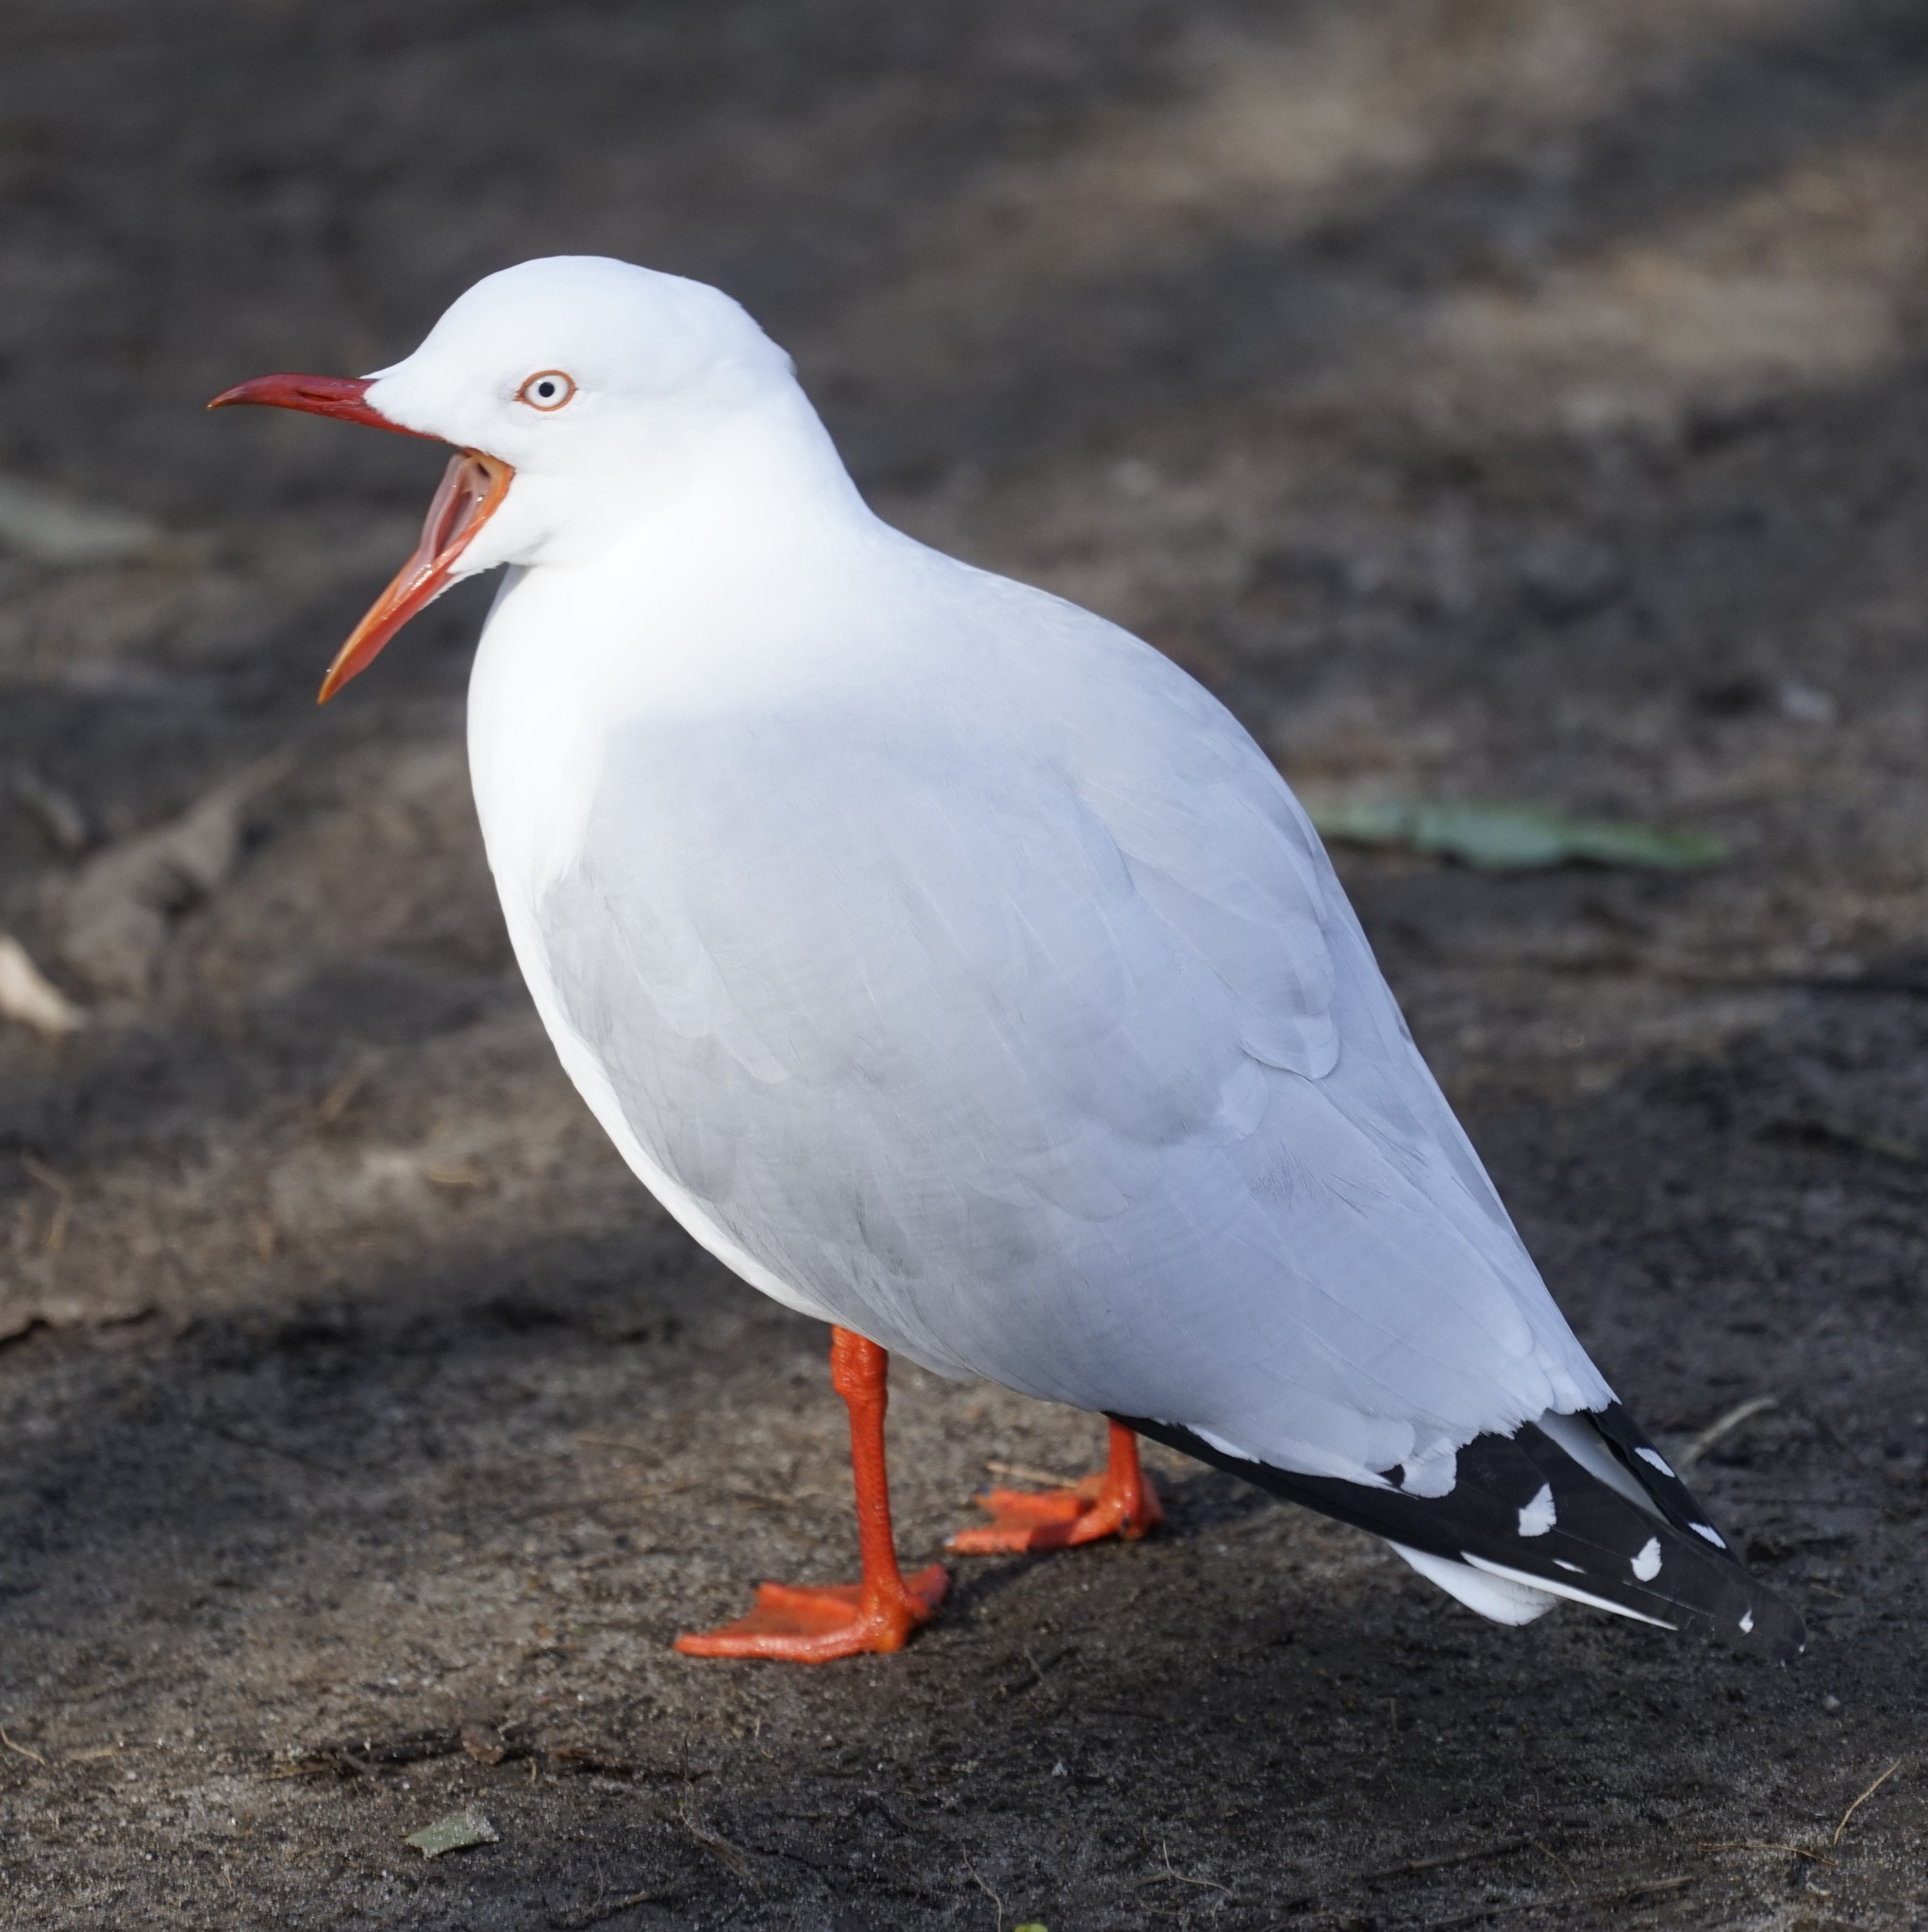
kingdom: Animalia
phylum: Chordata
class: Aves
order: Charadriiformes
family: Laridae
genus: Chroicocephalus
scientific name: Chroicocephalus novaehollandiae
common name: Silver gull
